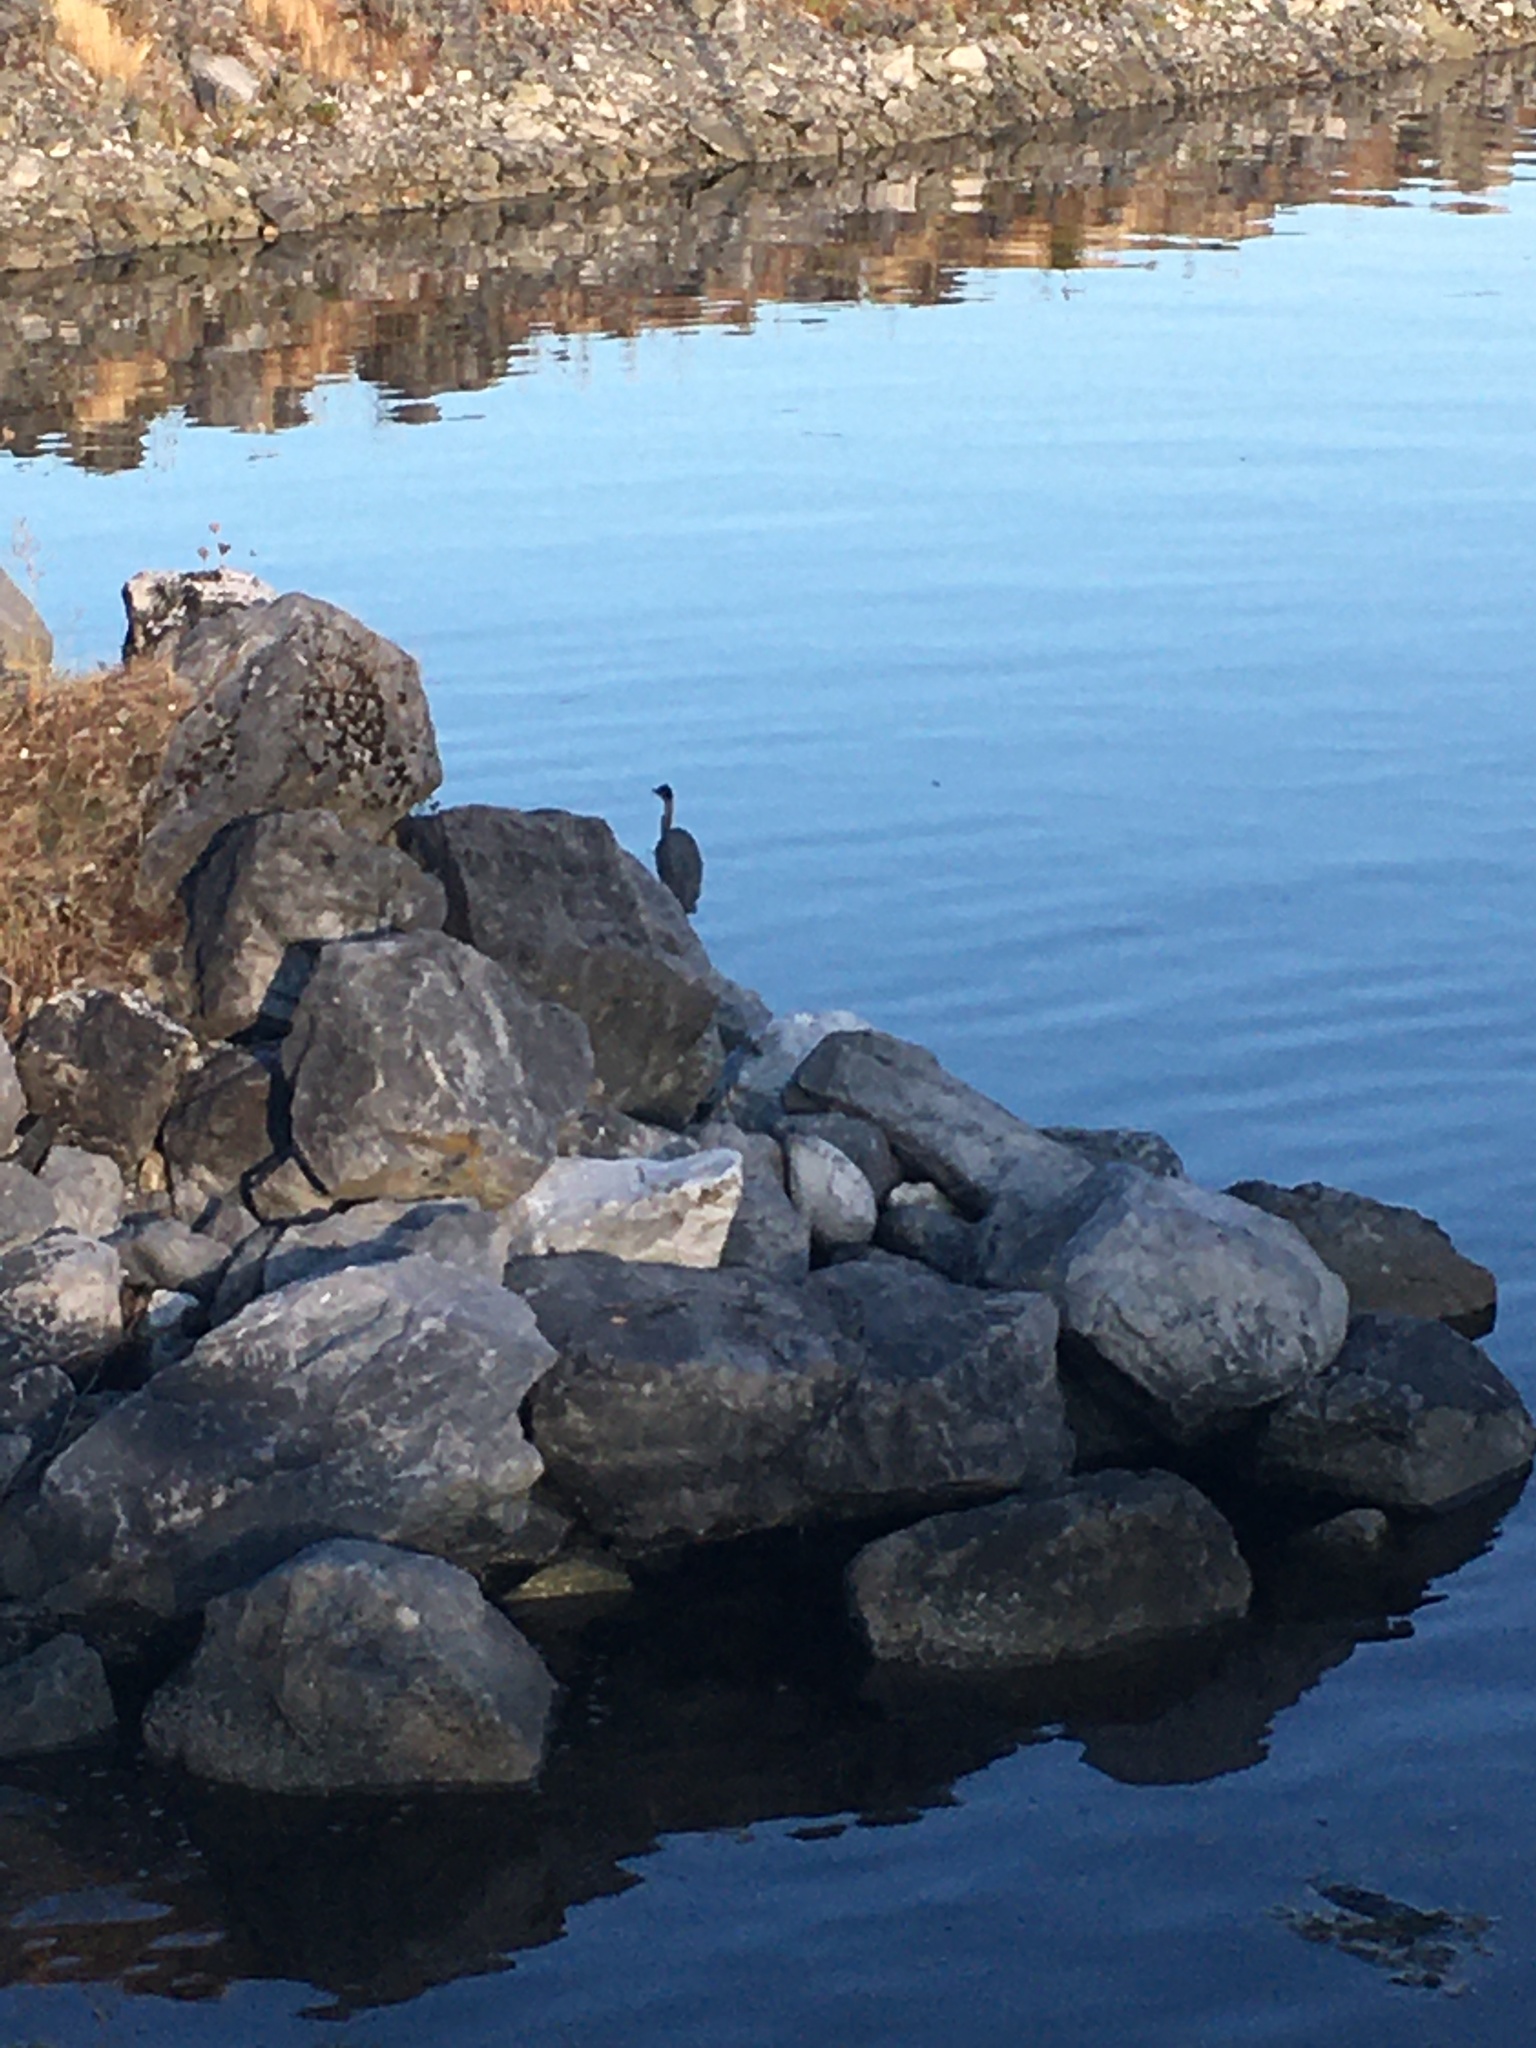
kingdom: Animalia
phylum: Chordata
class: Aves
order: Pelecaniformes
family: Ardeidae
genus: Ardea
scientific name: Ardea herodias
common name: Great blue heron
